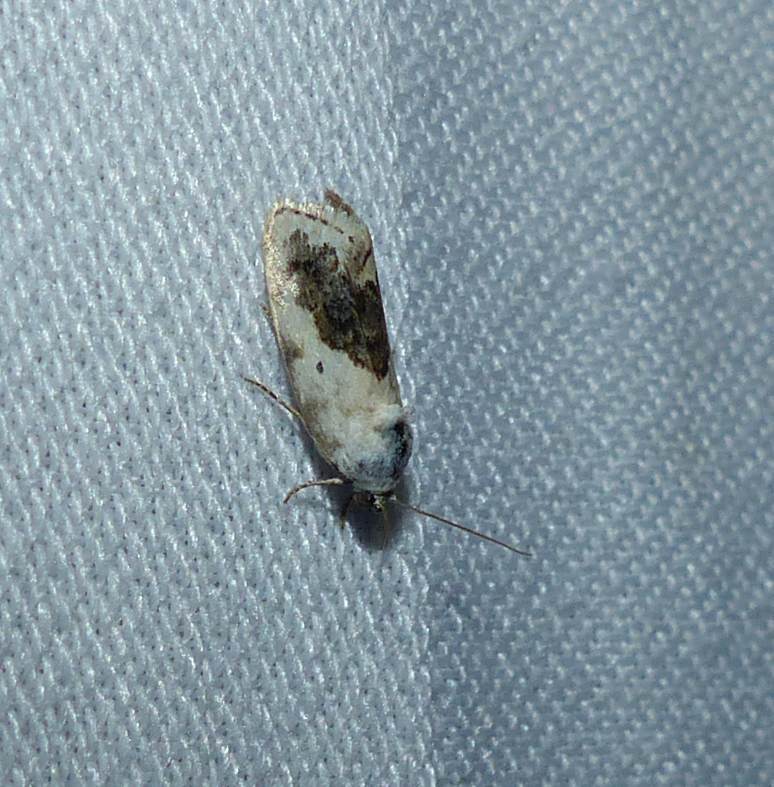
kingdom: Animalia
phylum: Arthropoda
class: Insecta
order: Lepidoptera
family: Noctuidae
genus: Acontia
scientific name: Acontia erastrioides
